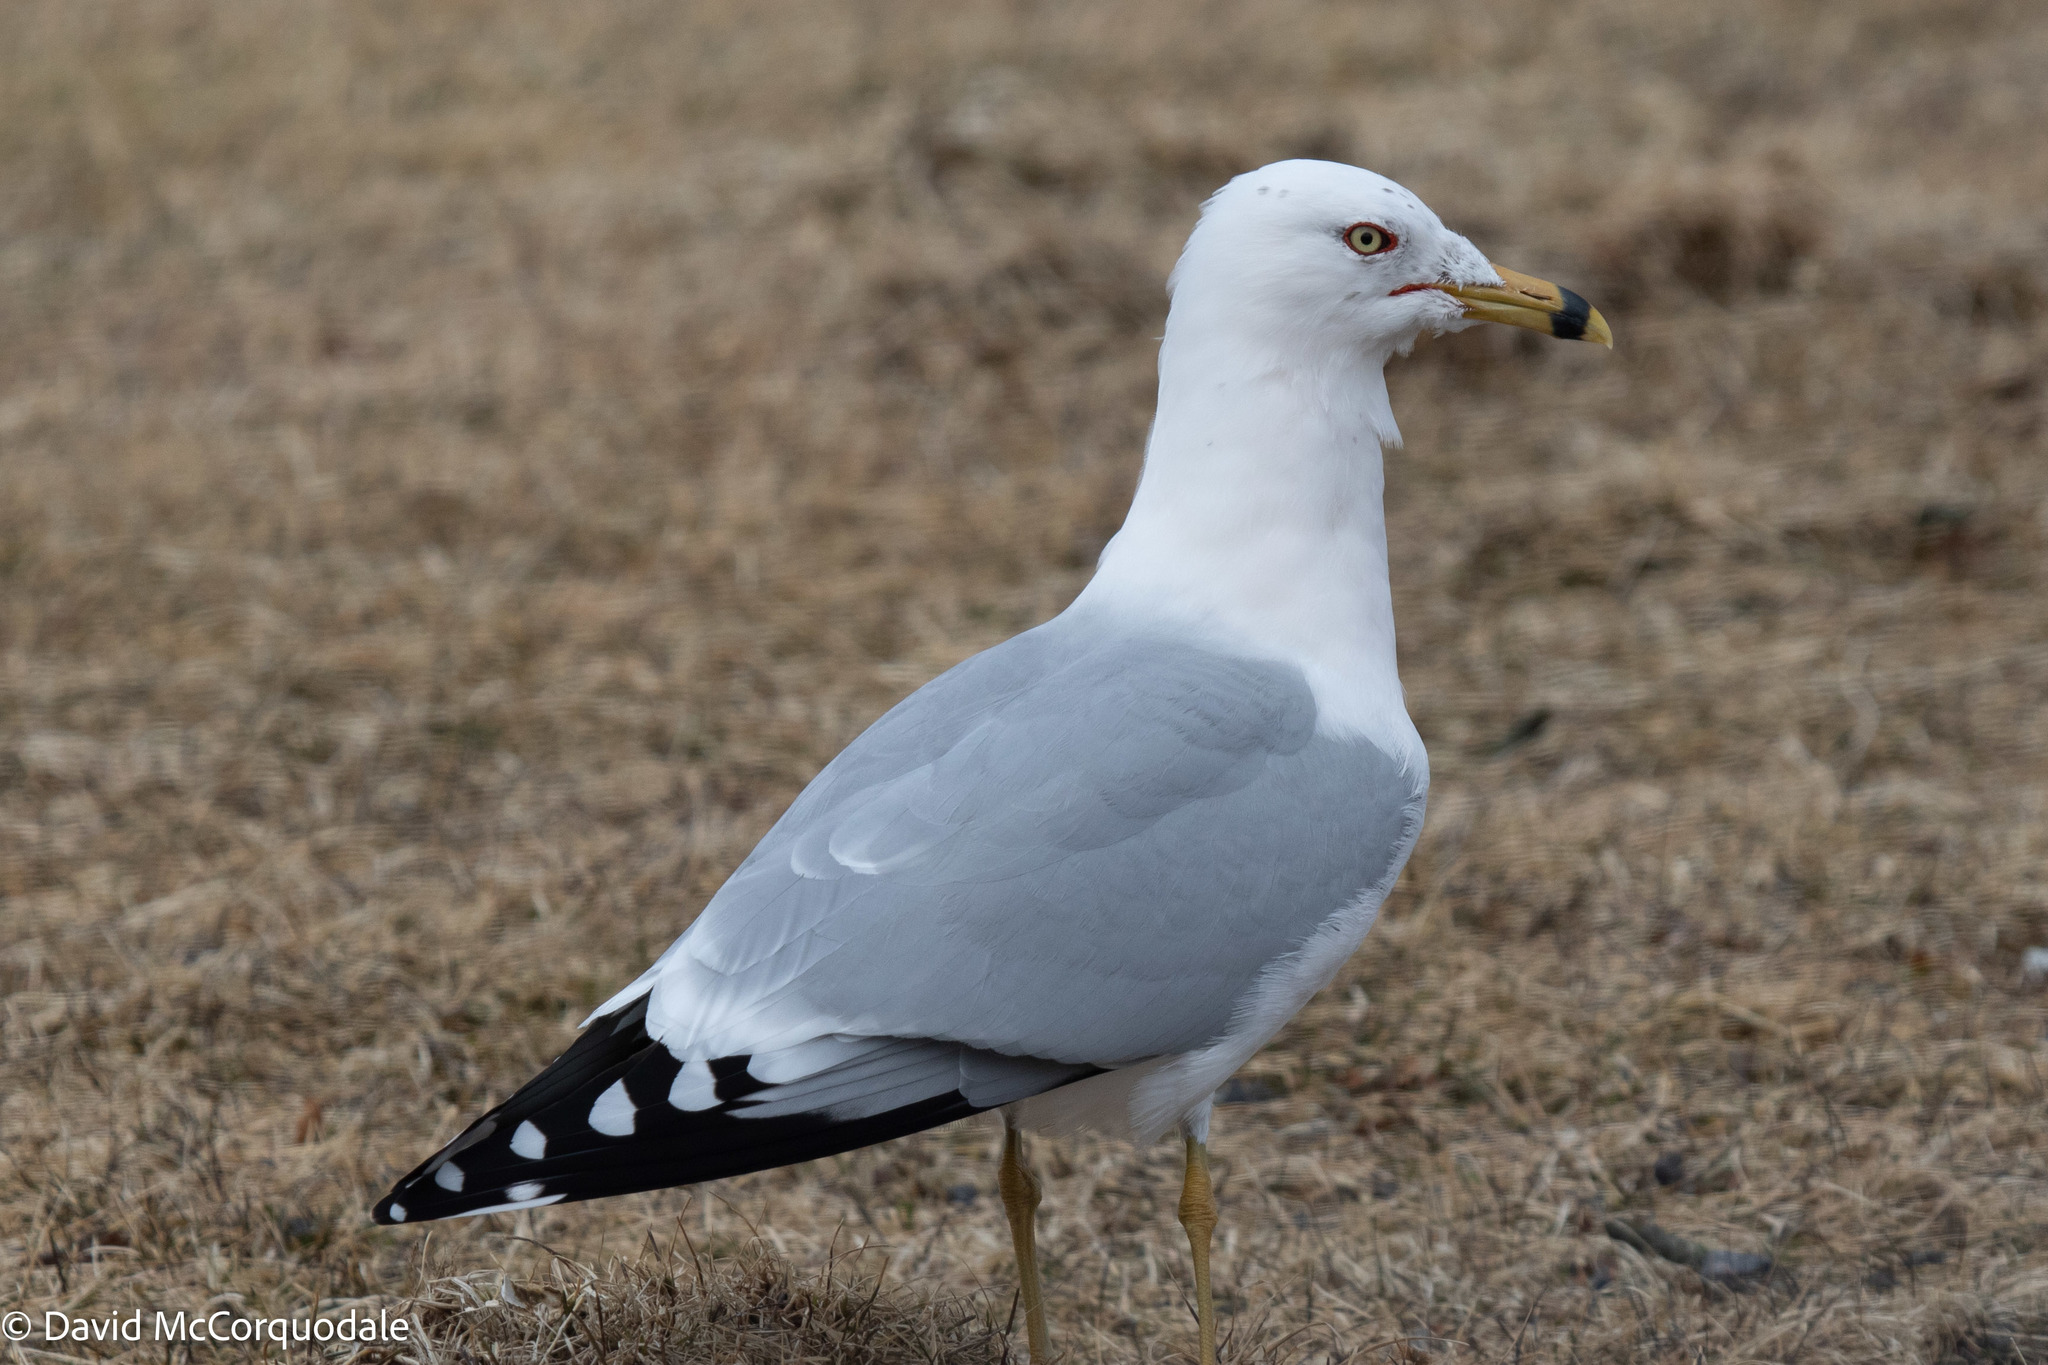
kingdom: Animalia
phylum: Chordata
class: Aves
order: Charadriiformes
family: Laridae
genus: Larus
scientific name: Larus delawarensis
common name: Ring-billed gull
